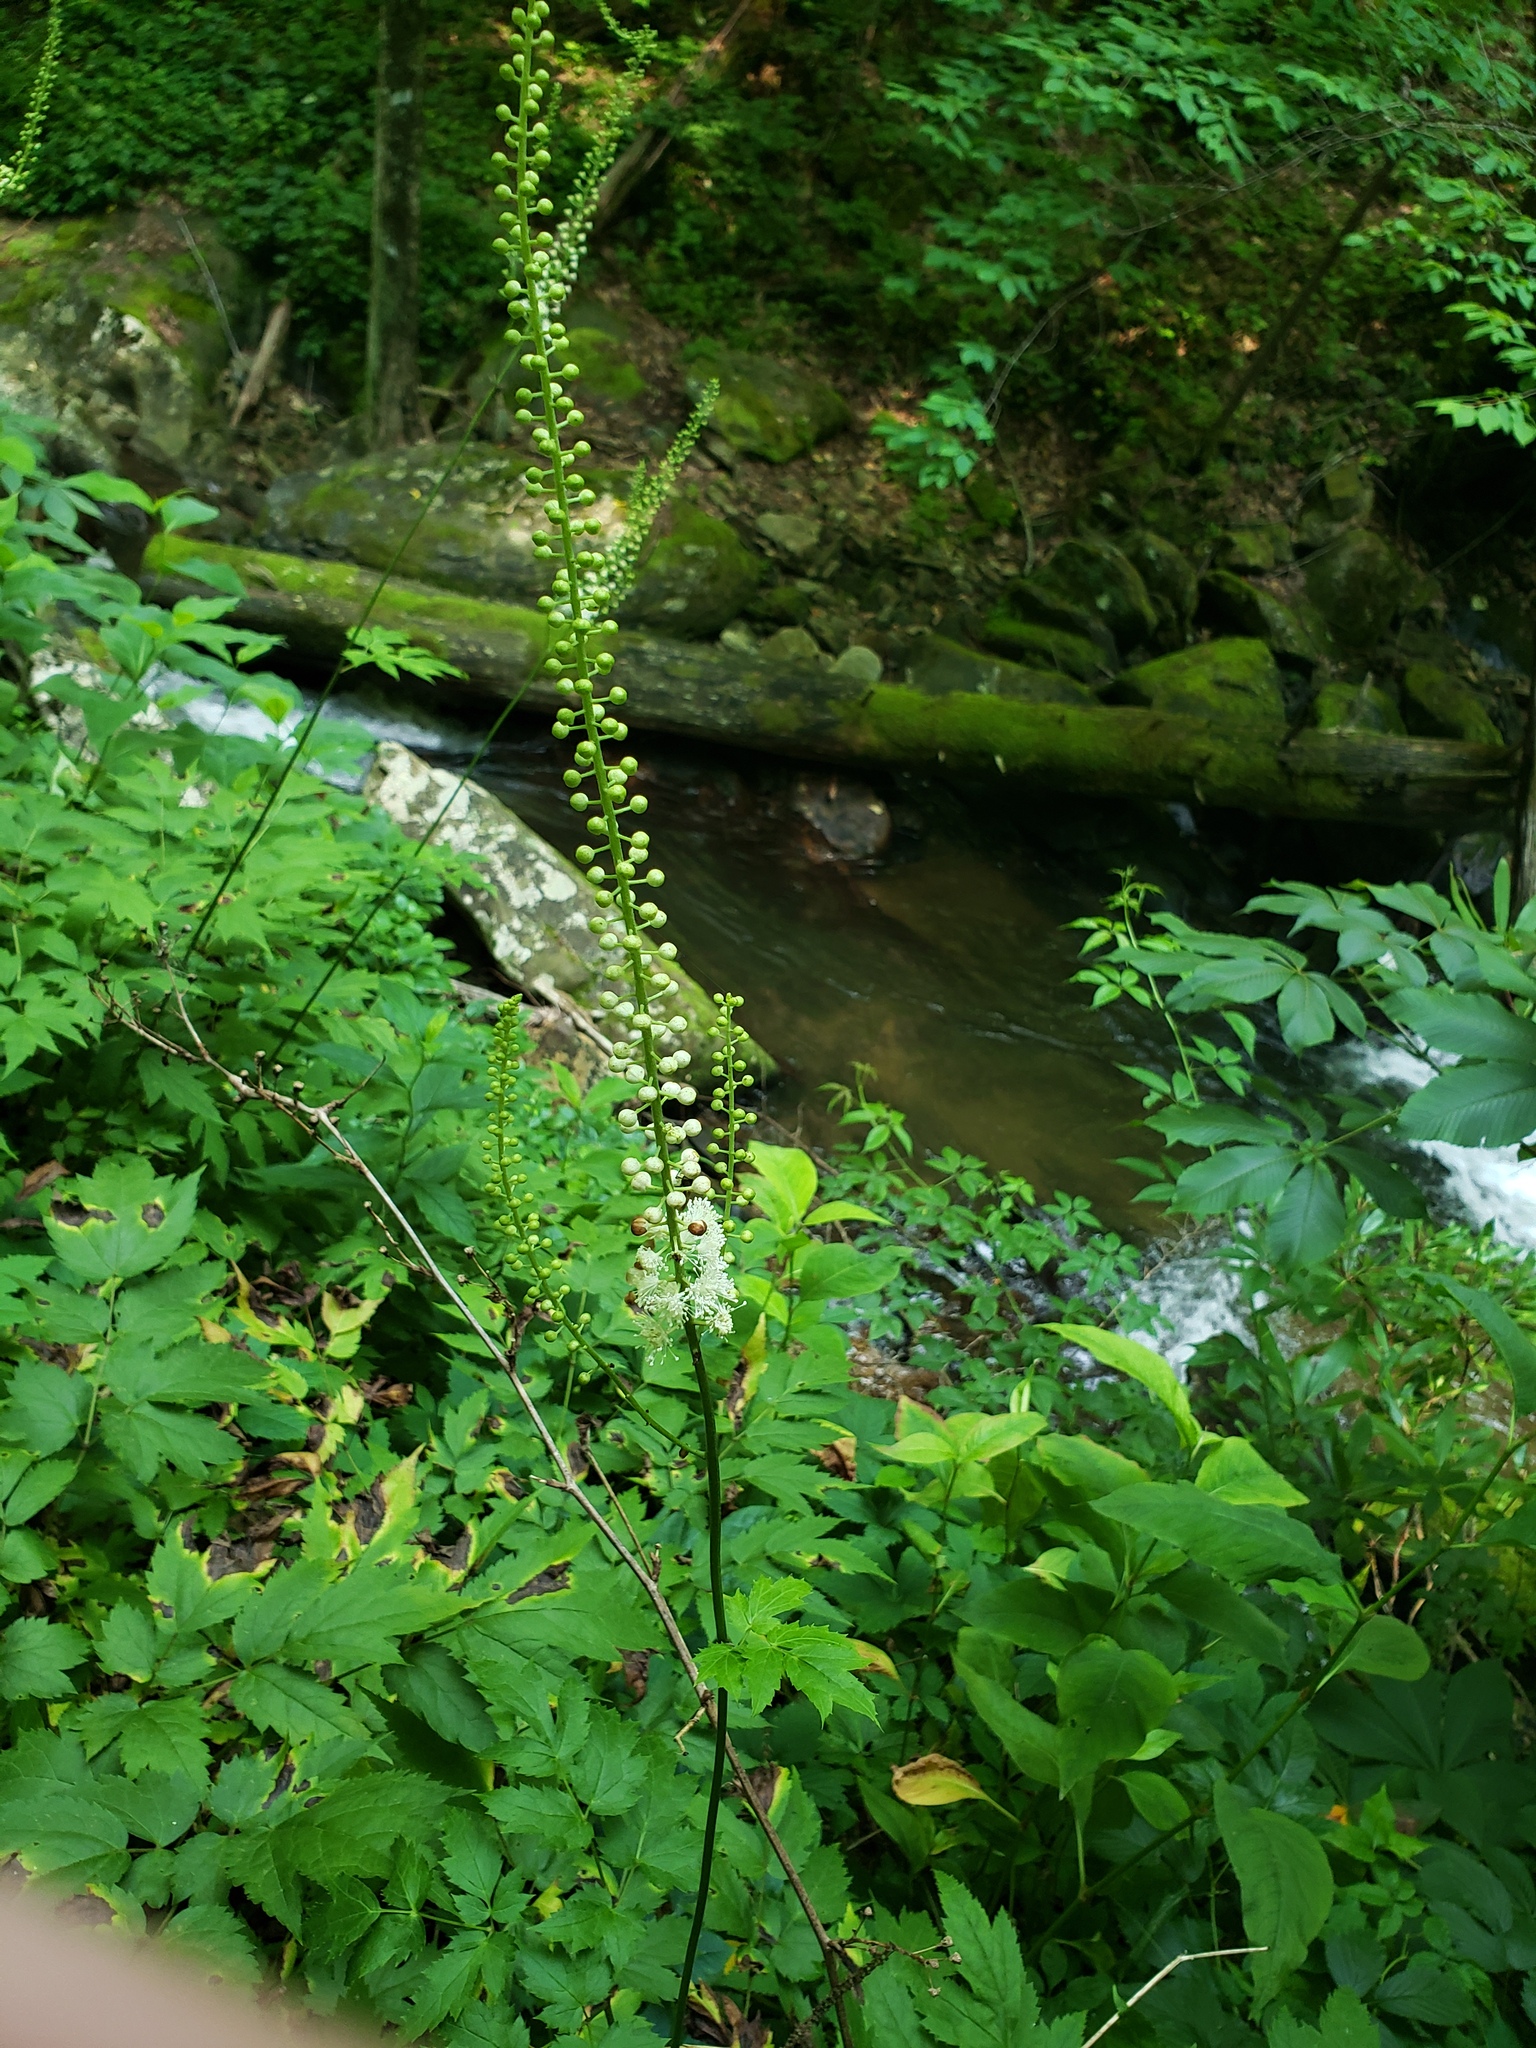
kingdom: Plantae
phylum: Tracheophyta
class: Magnoliopsida
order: Ranunculales
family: Ranunculaceae
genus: Actaea
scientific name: Actaea racemosa
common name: Black cohosh
